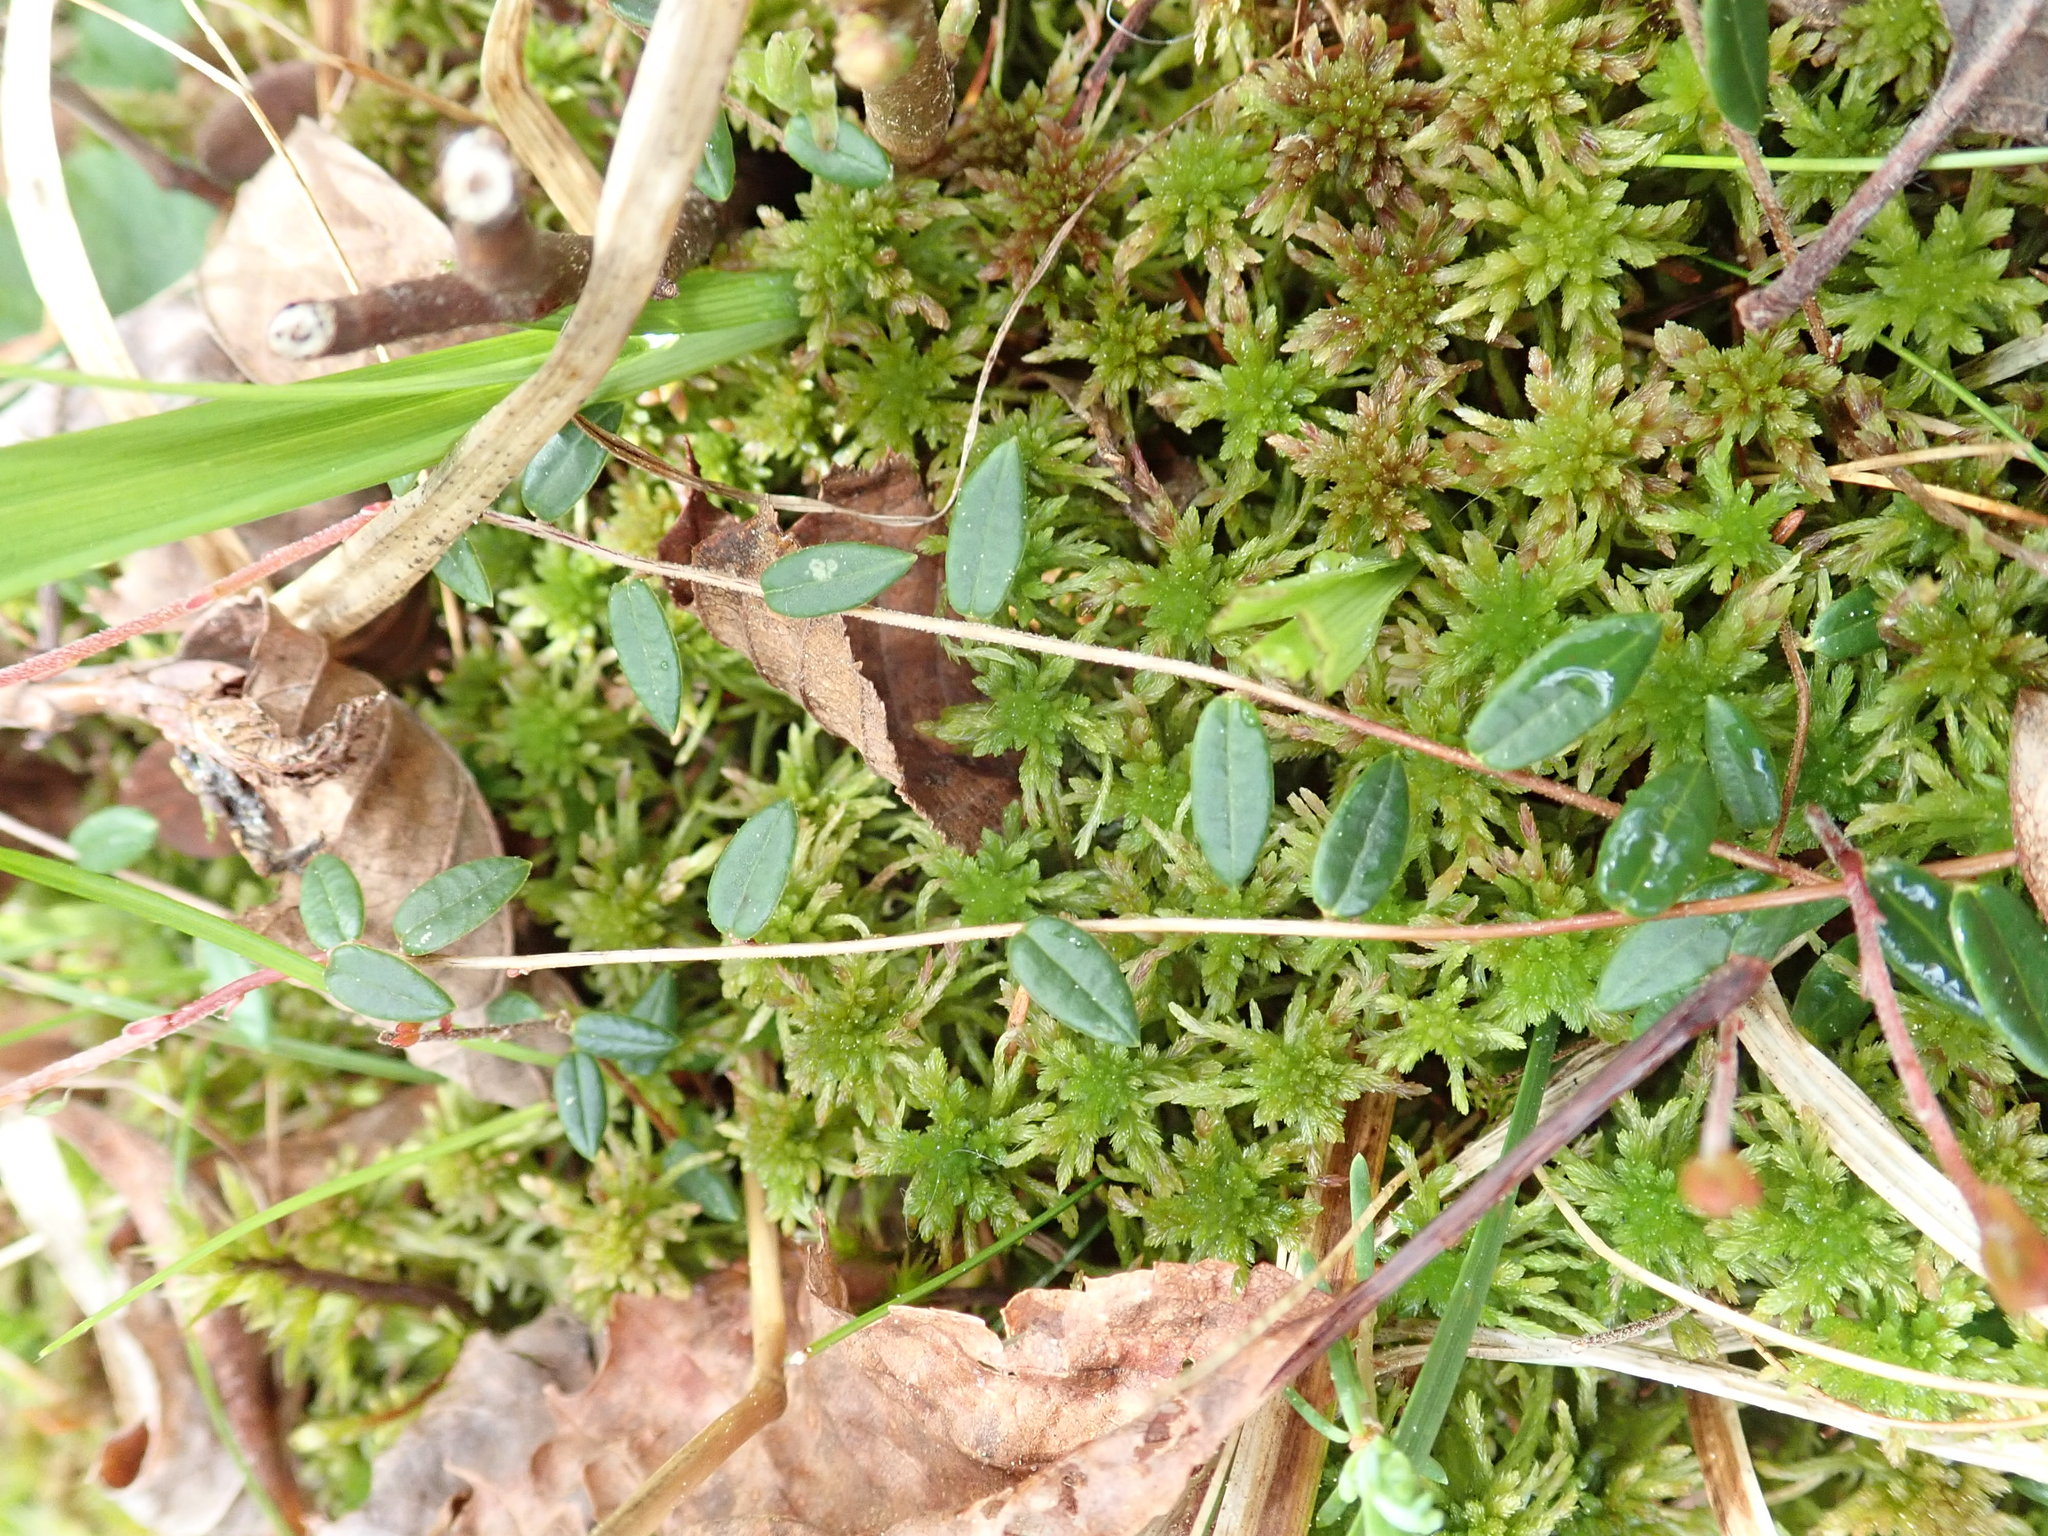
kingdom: Plantae
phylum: Tracheophyta
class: Magnoliopsida
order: Ericales
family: Ericaceae
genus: Vaccinium
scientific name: Vaccinium oxycoccos
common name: Cranberry
